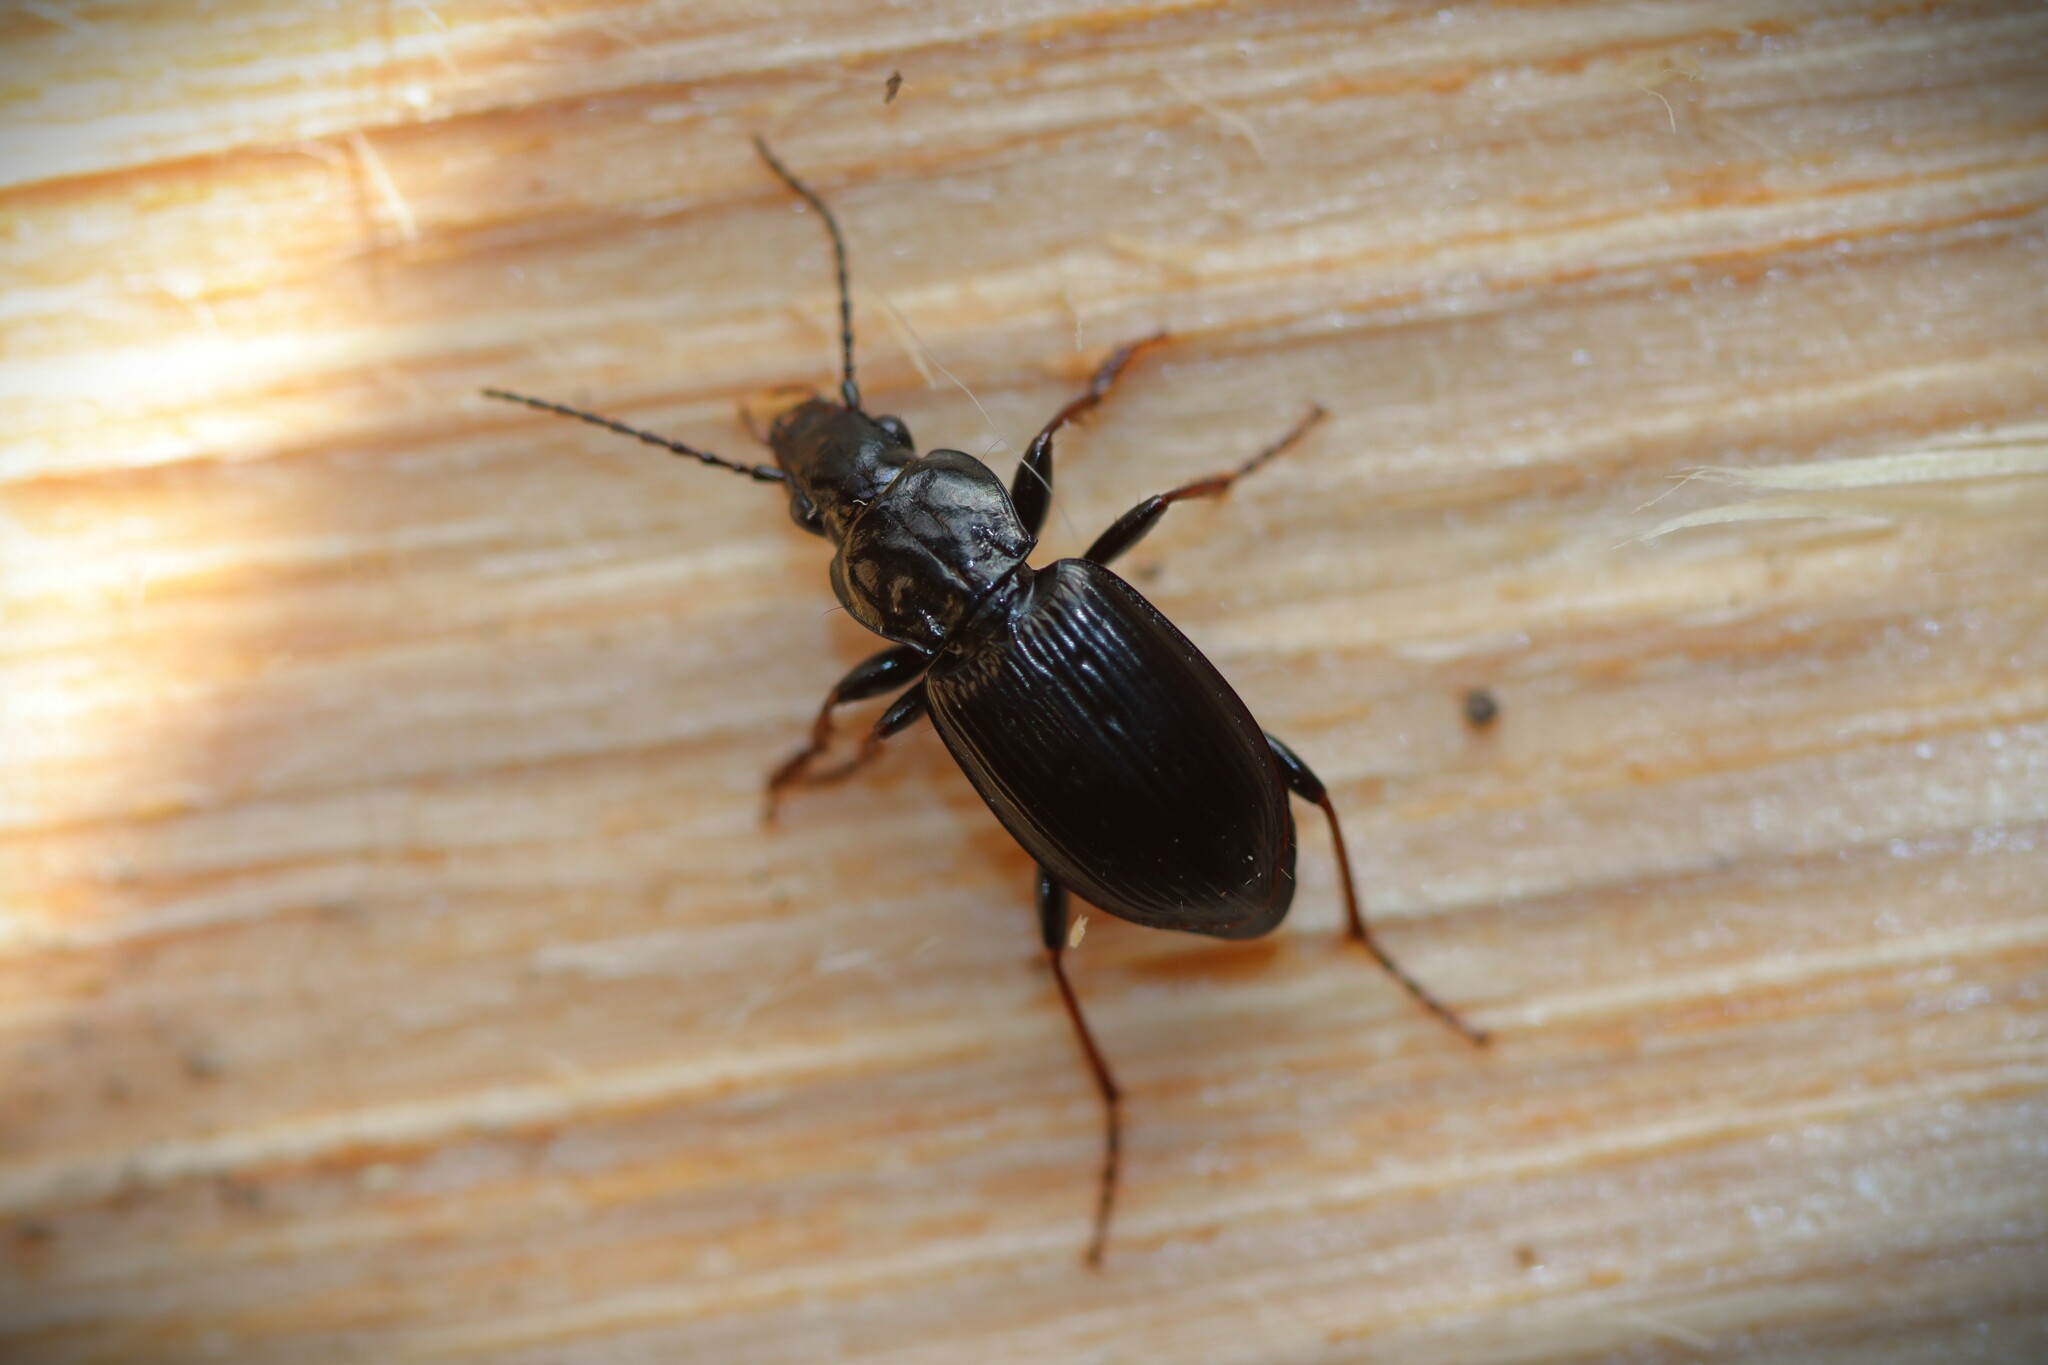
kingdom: Animalia
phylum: Arthropoda
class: Insecta
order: Coleoptera
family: Carabidae
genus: Pterostichus
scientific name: Pterostichus oblongopunctatus
